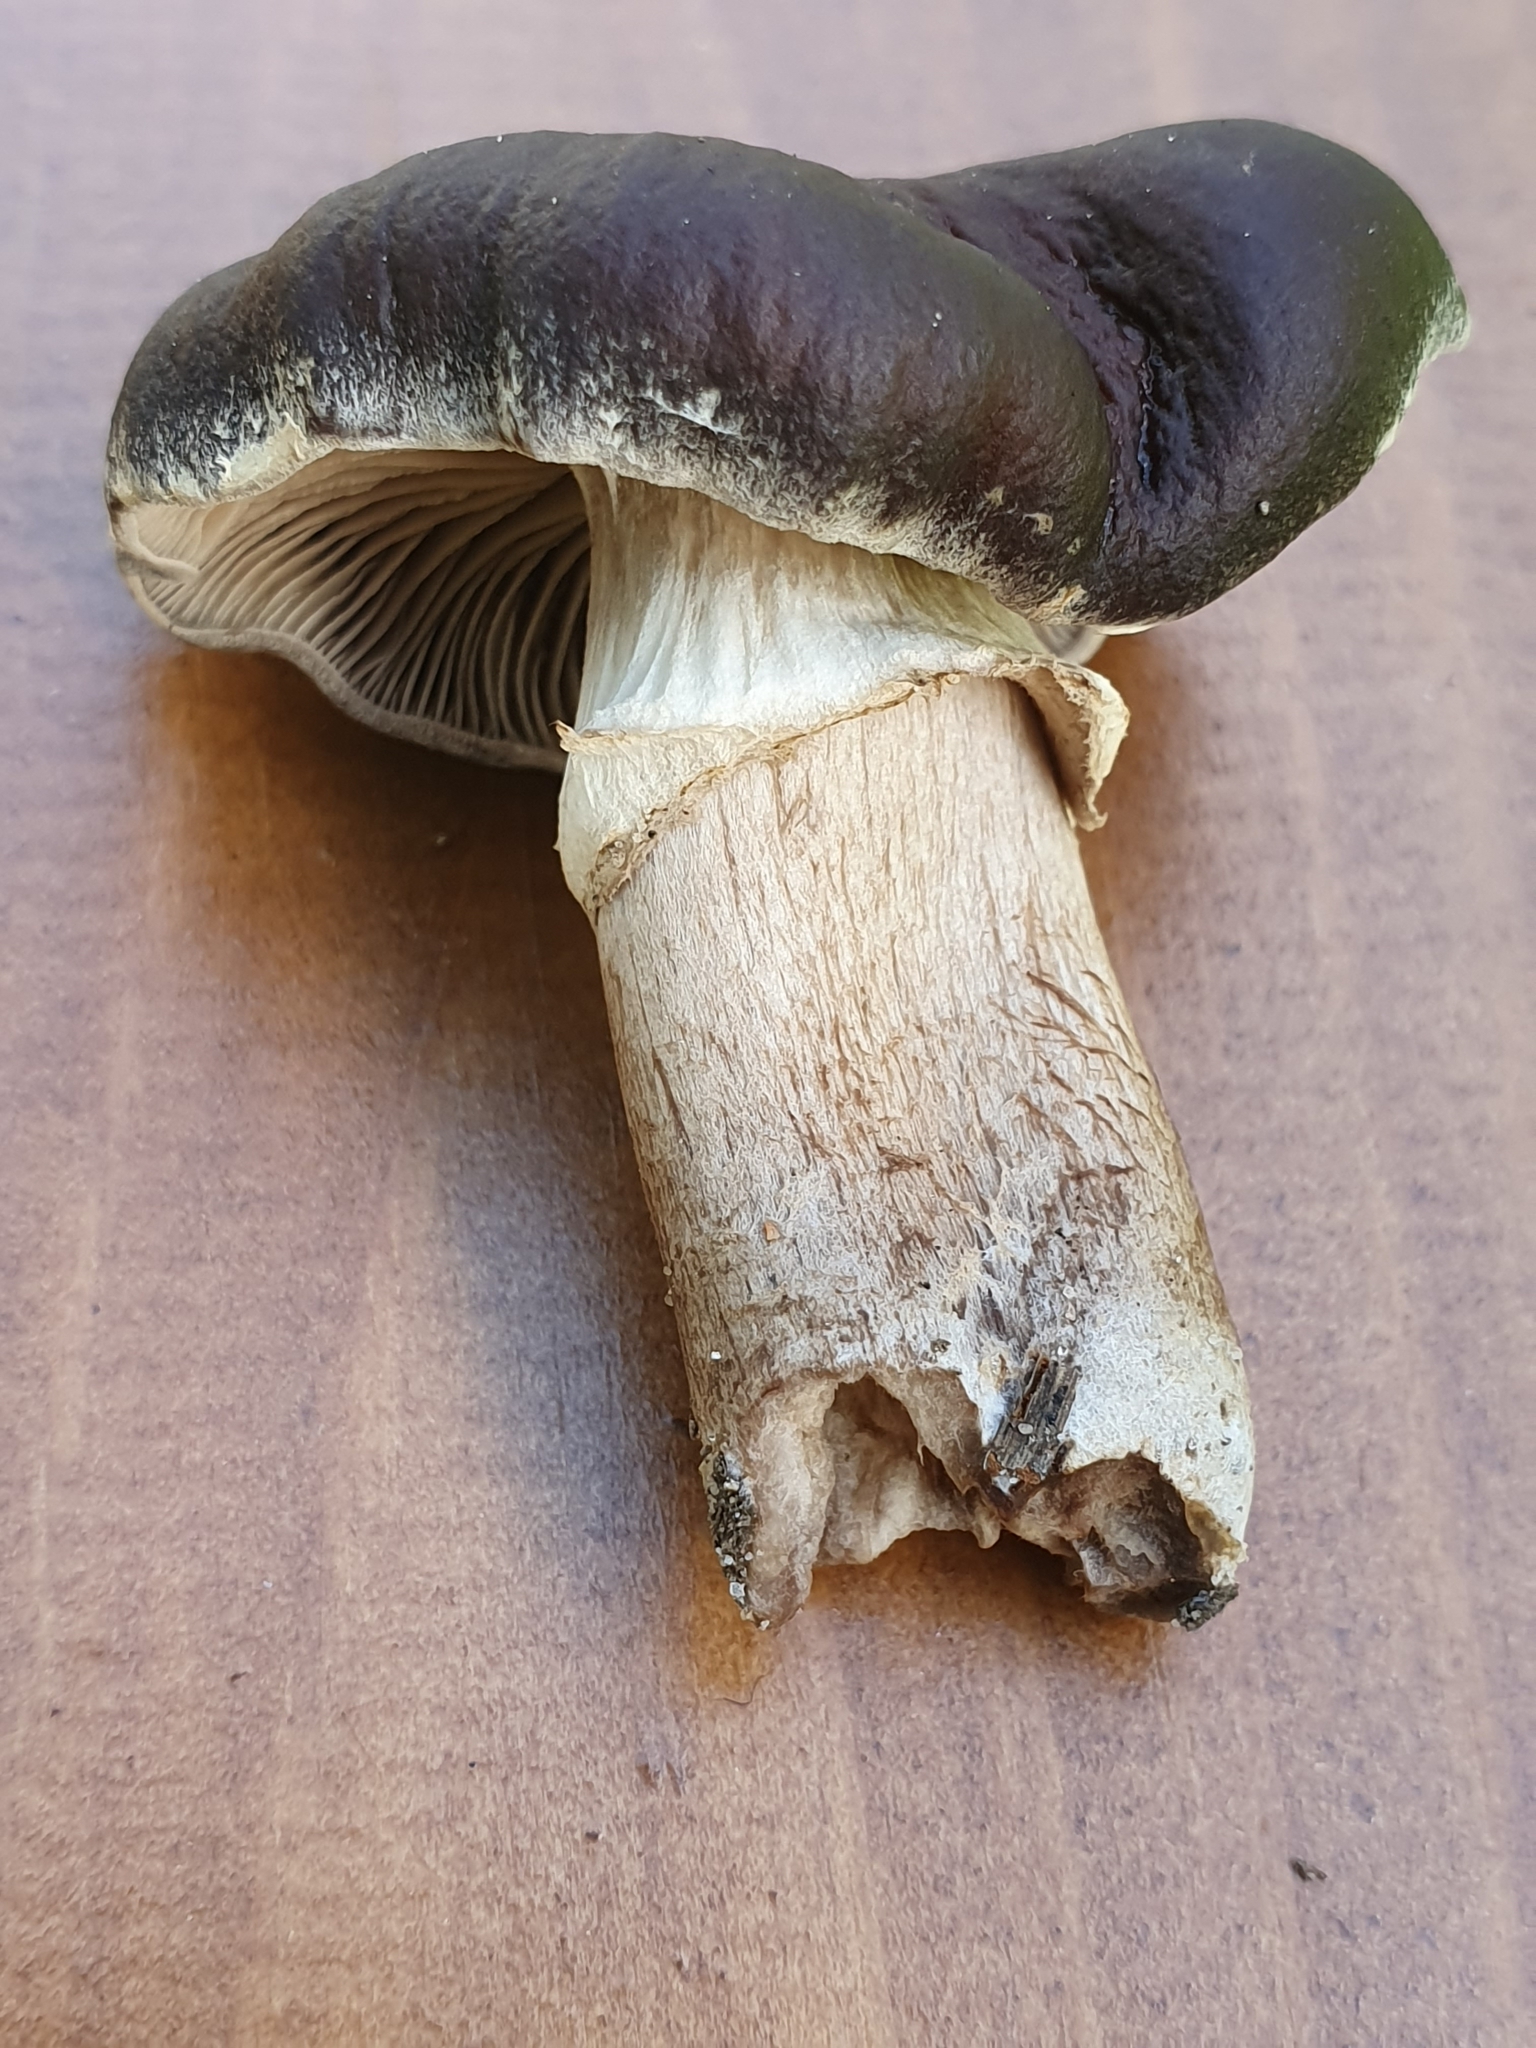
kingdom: Fungi
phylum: Basidiomycota
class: Agaricomycetes
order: Agaricales
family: Tubariaceae
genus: Cyclocybe
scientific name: Cyclocybe erebia
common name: Dark fieldcap
